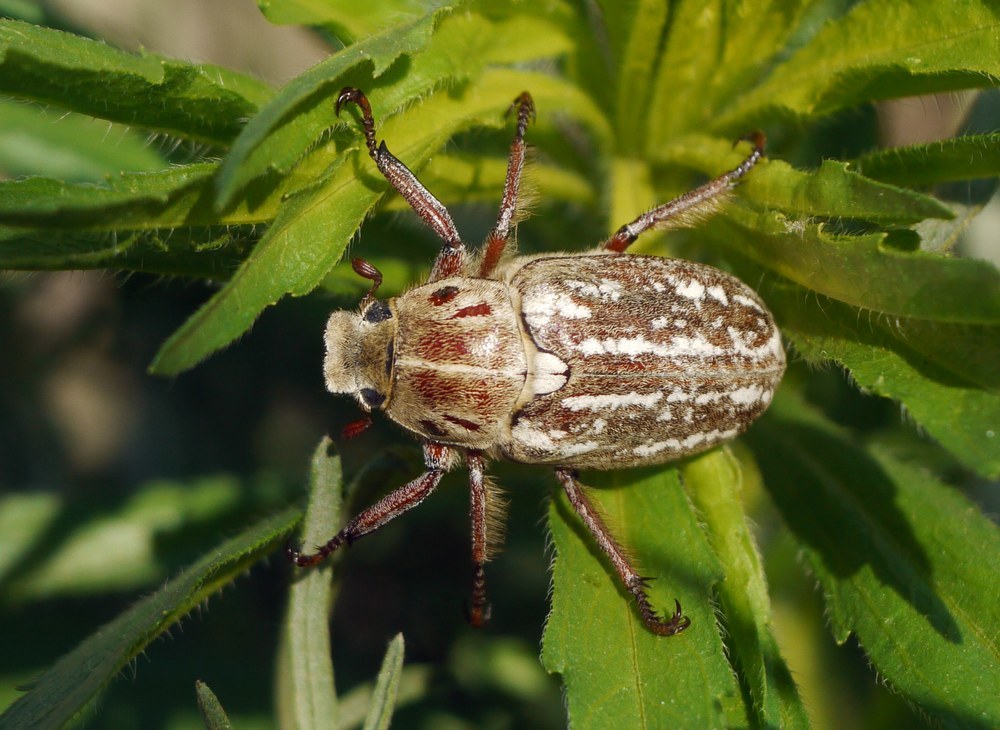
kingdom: Animalia
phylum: Arthropoda
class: Insecta
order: Coleoptera
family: Scarabaeidae
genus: Anoxia
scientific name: Anoxia orientalis
